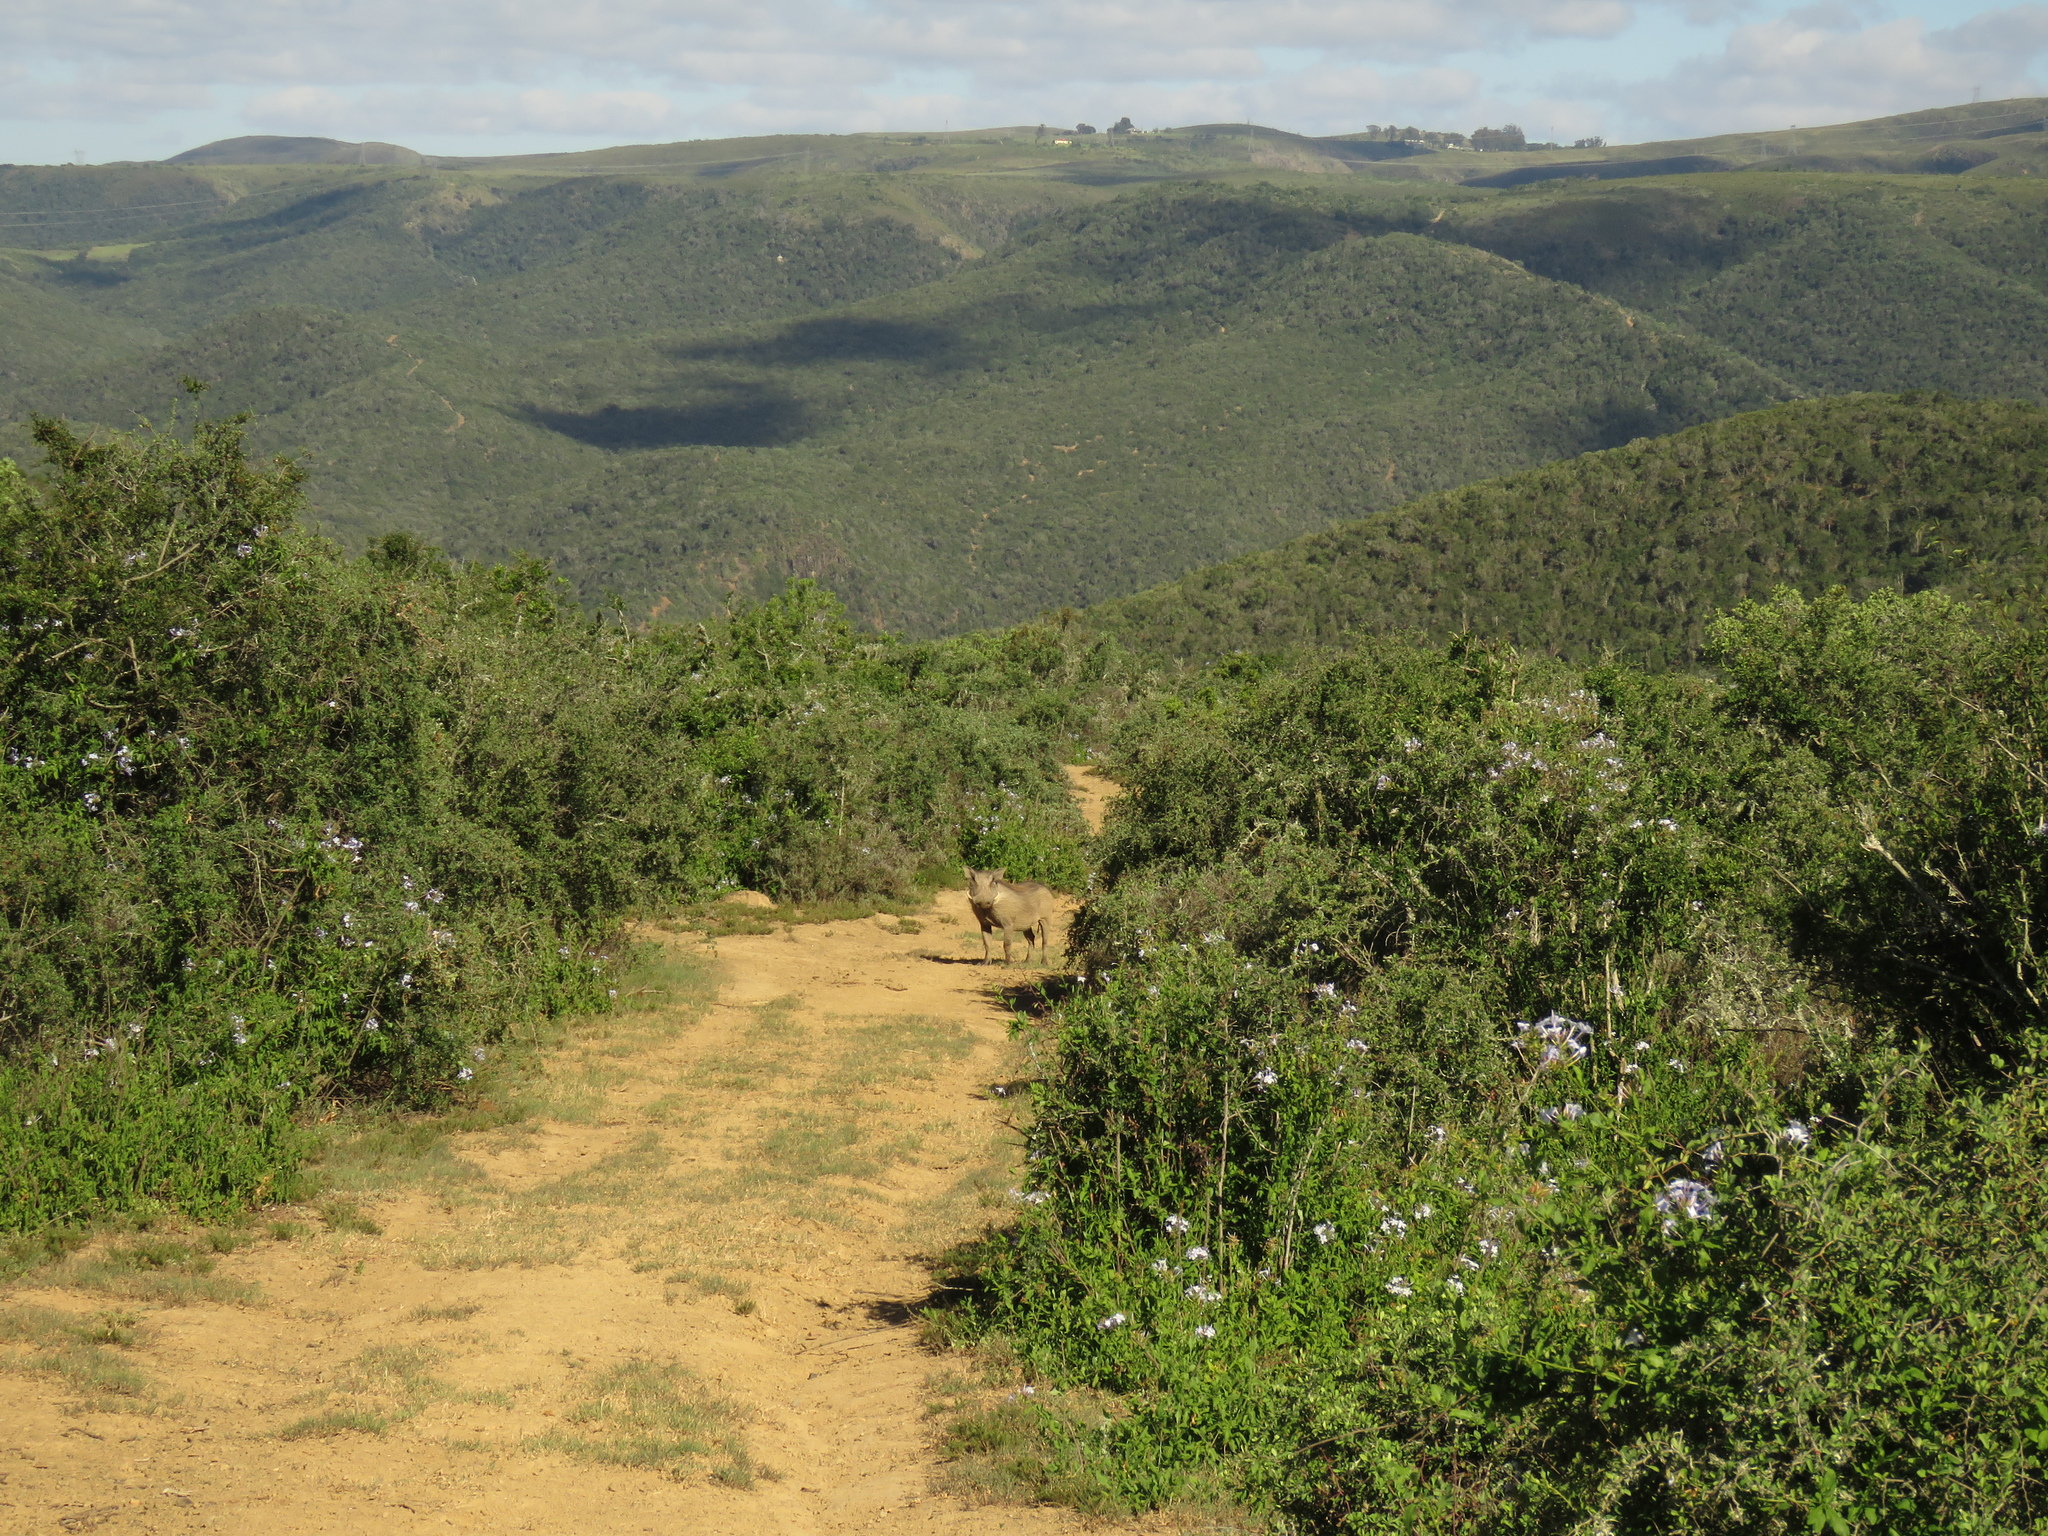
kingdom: Animalia
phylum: Chordata
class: Mammalia
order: Artiodactyla
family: Suidae
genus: Phacochoerus
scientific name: Phacochoerus africanus
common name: Common warthog
